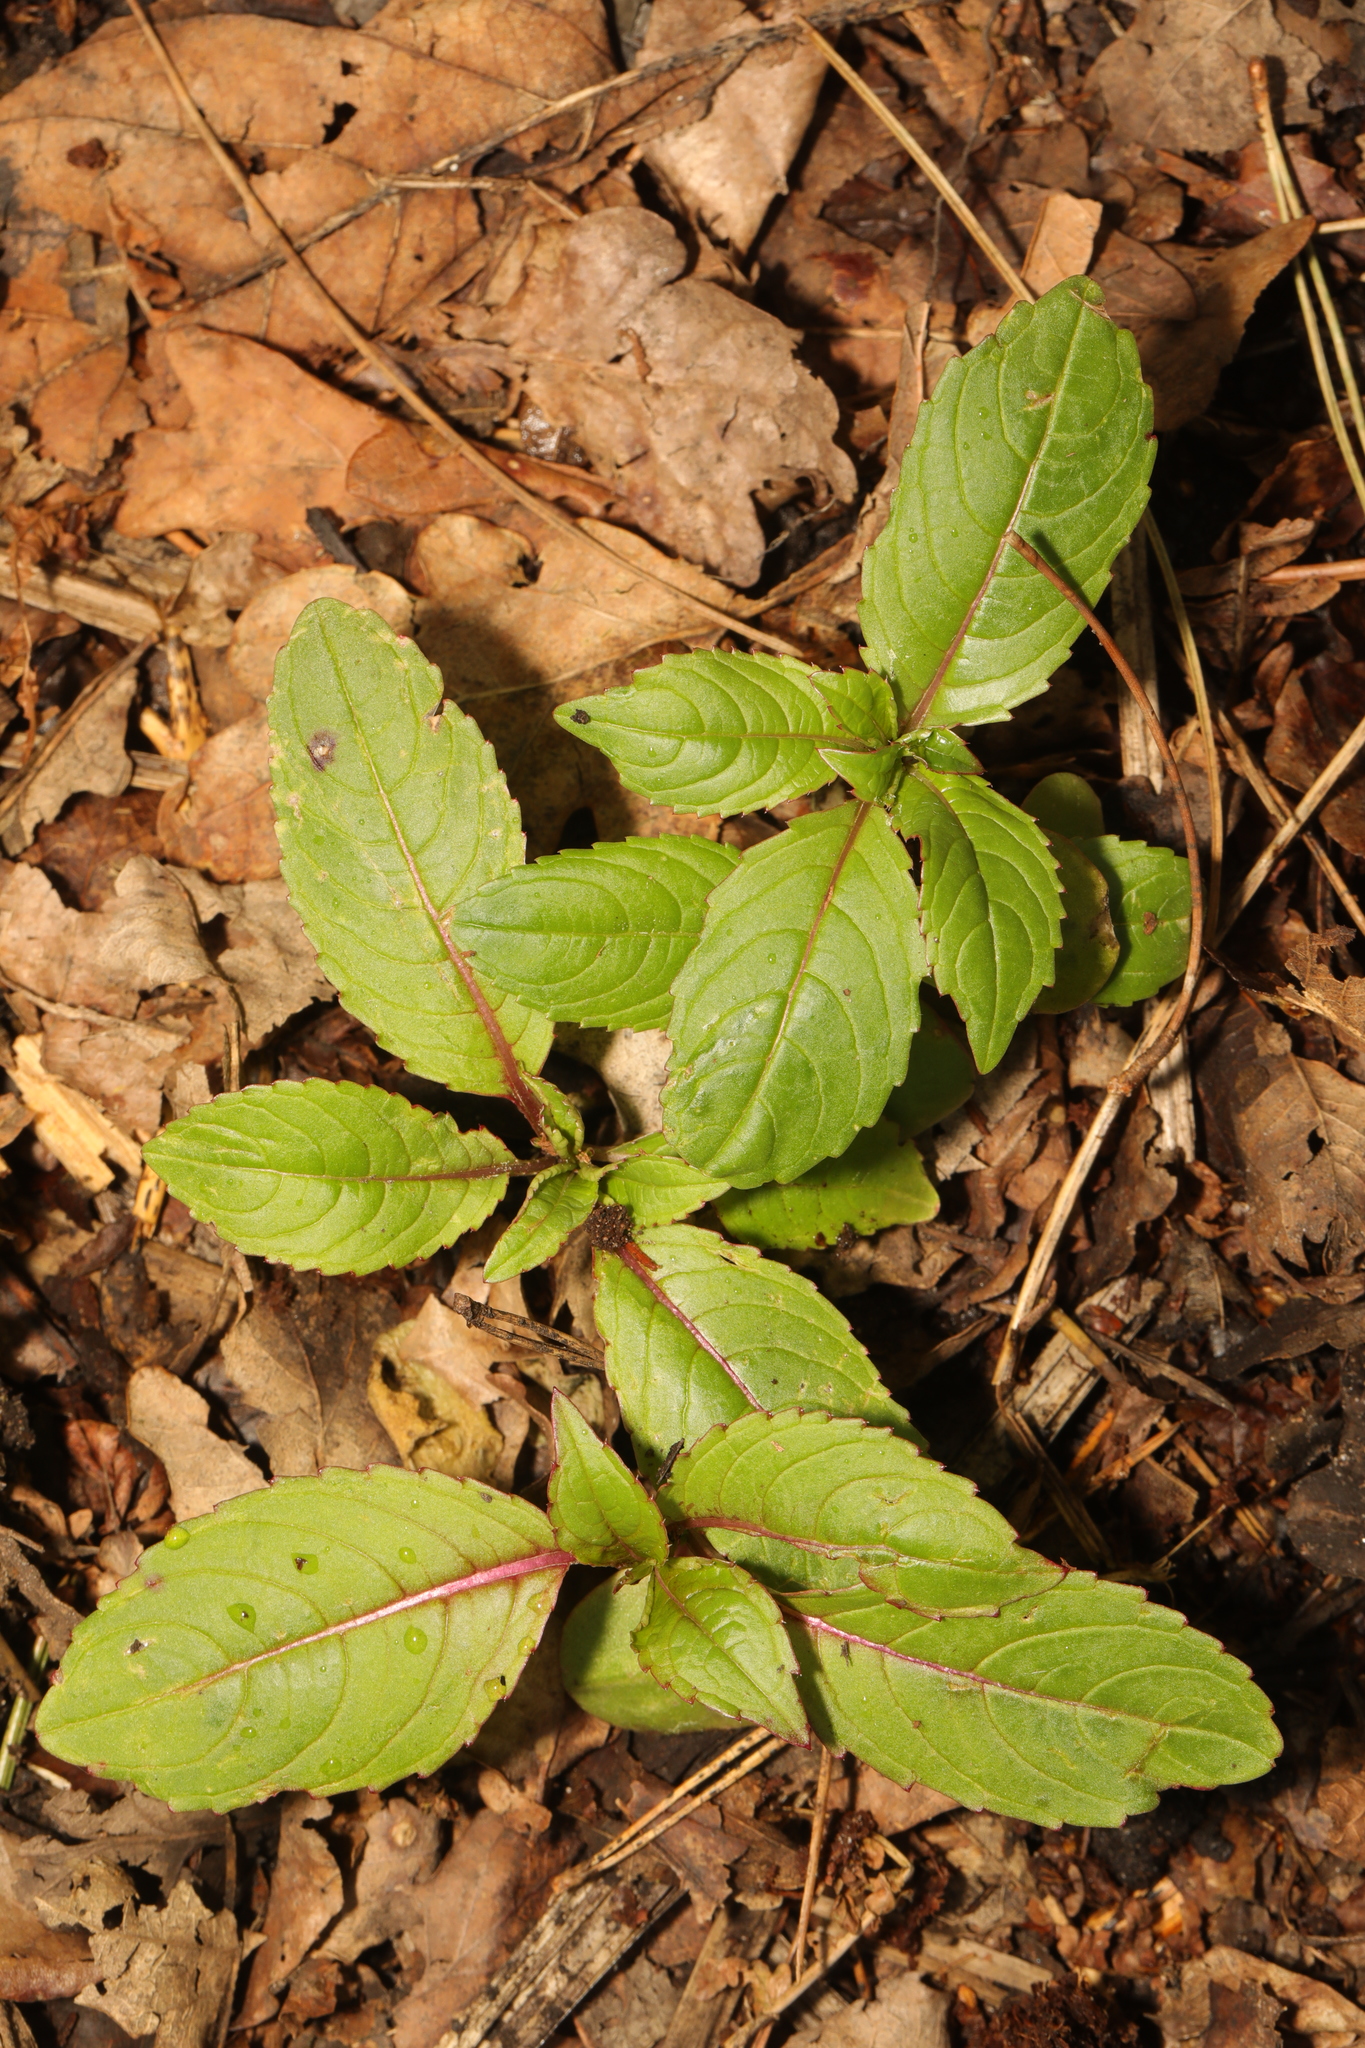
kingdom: Plantae
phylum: Tracheophyta
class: Magnoliopsida
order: Ericales
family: Balsaminaceae
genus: Impatiens
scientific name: Impatiens glandulifera
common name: Himalayan balsam
